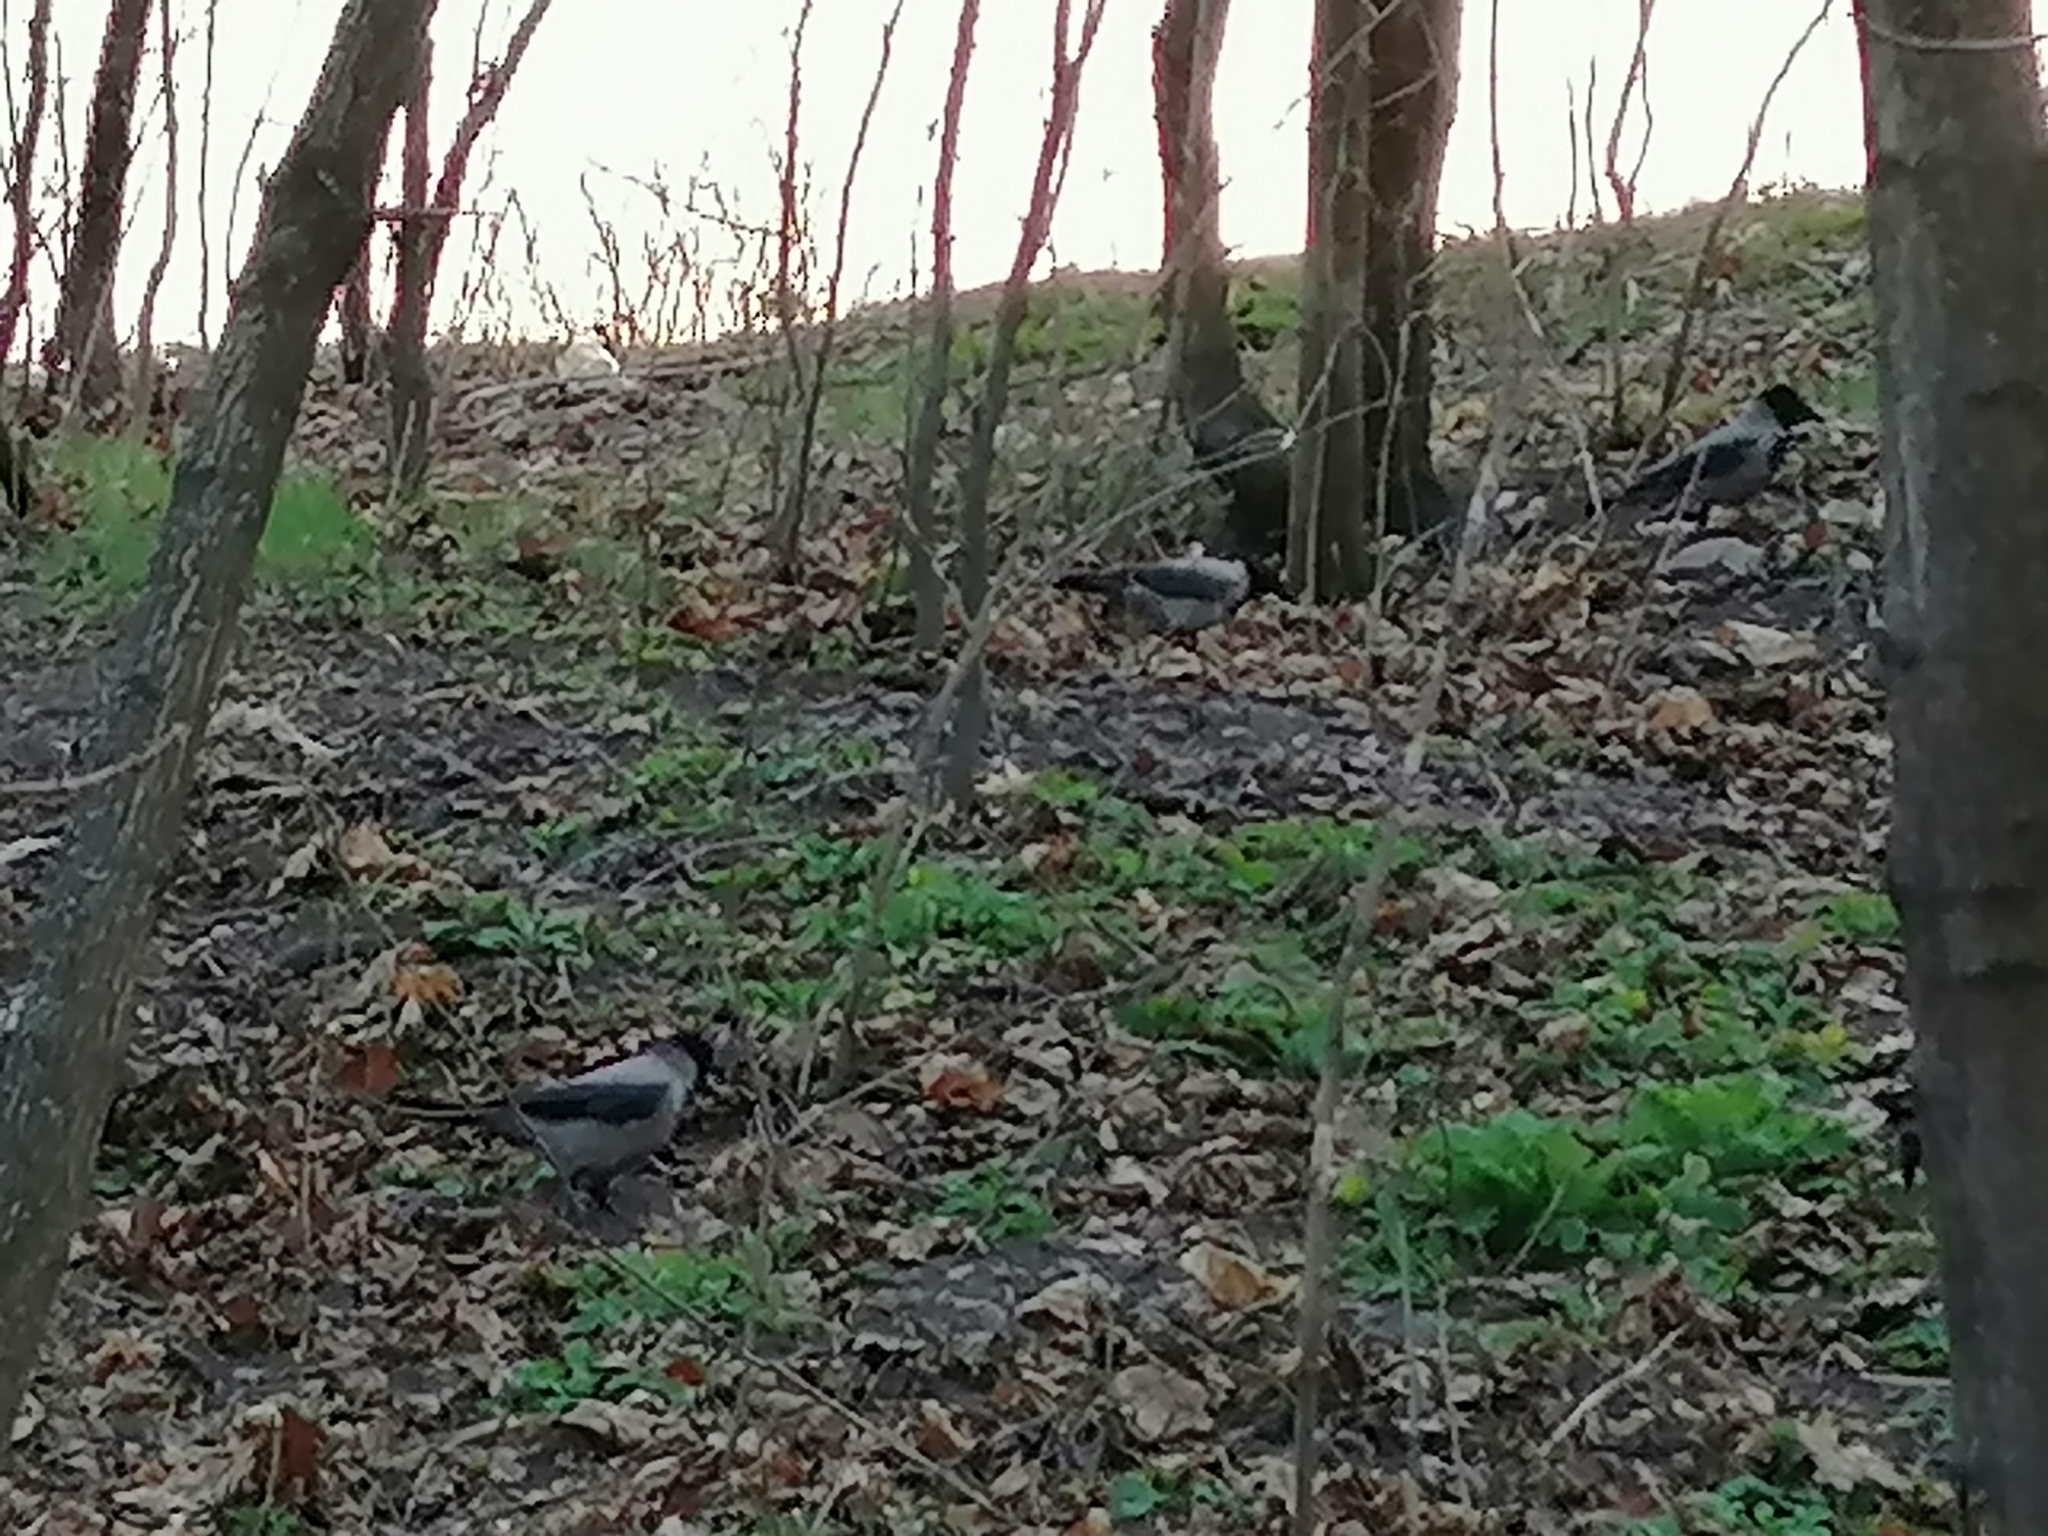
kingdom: Animalia
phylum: Chordata
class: Aves
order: Passeriformes
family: Corvidae
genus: Corvus
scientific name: Corvus cornix
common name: Hooded crow
